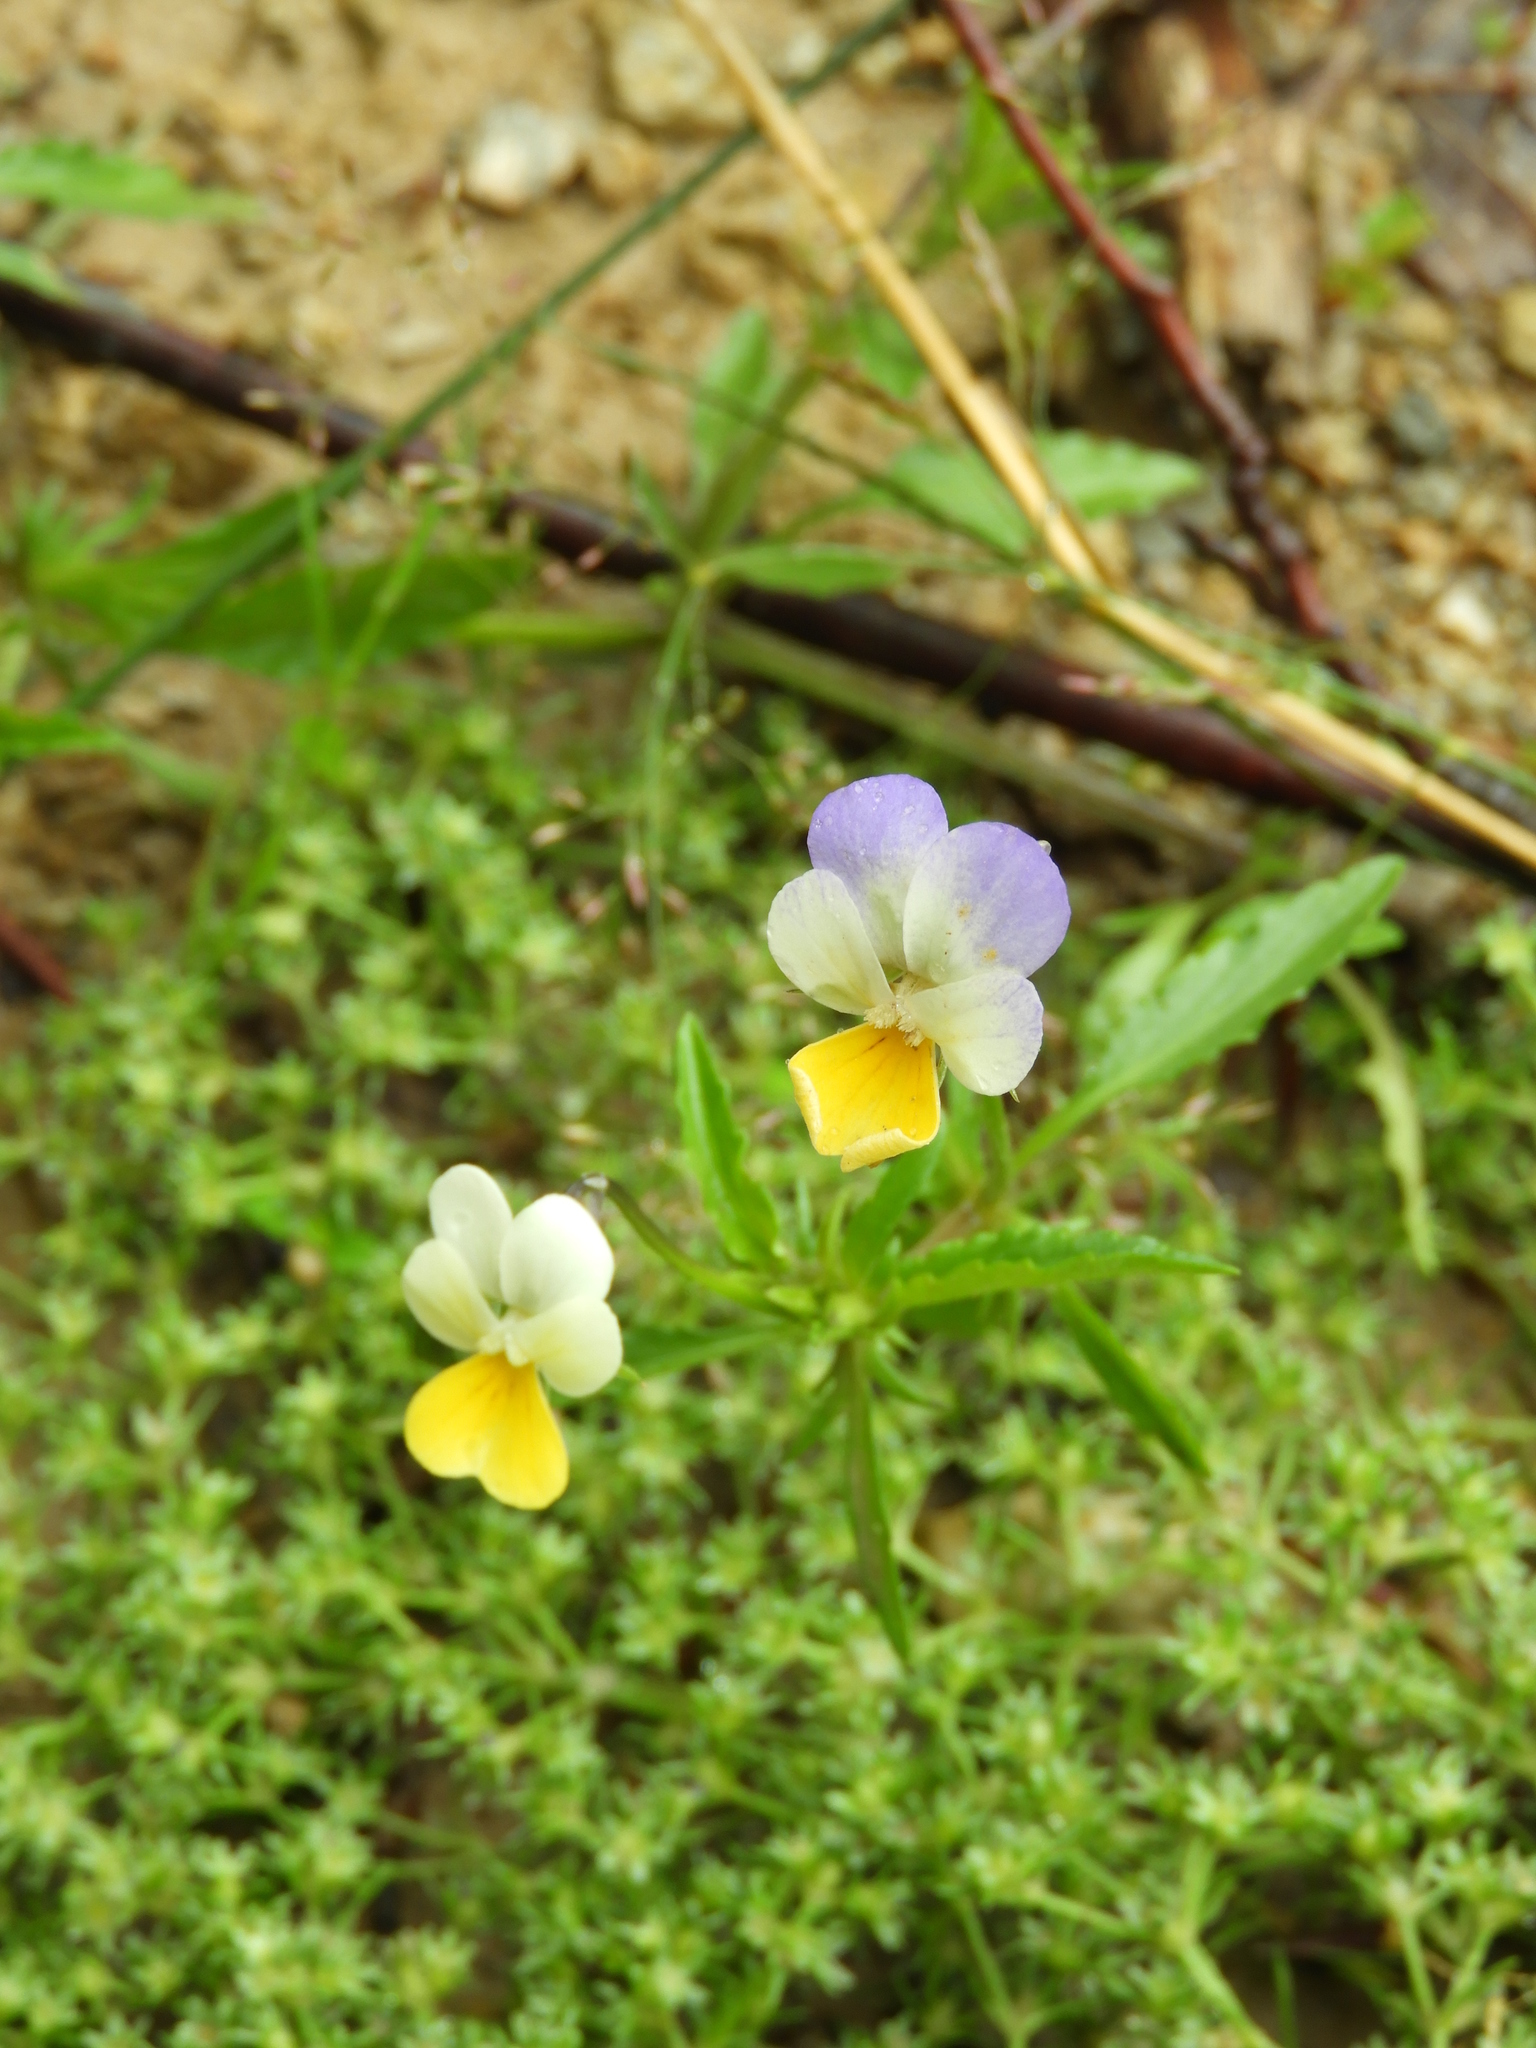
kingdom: Plantae
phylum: Tracheophyta
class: Magnoliopsida
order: Malpighiales
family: Violaceae
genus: Viola
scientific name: Viola tricolor
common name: Pansy
